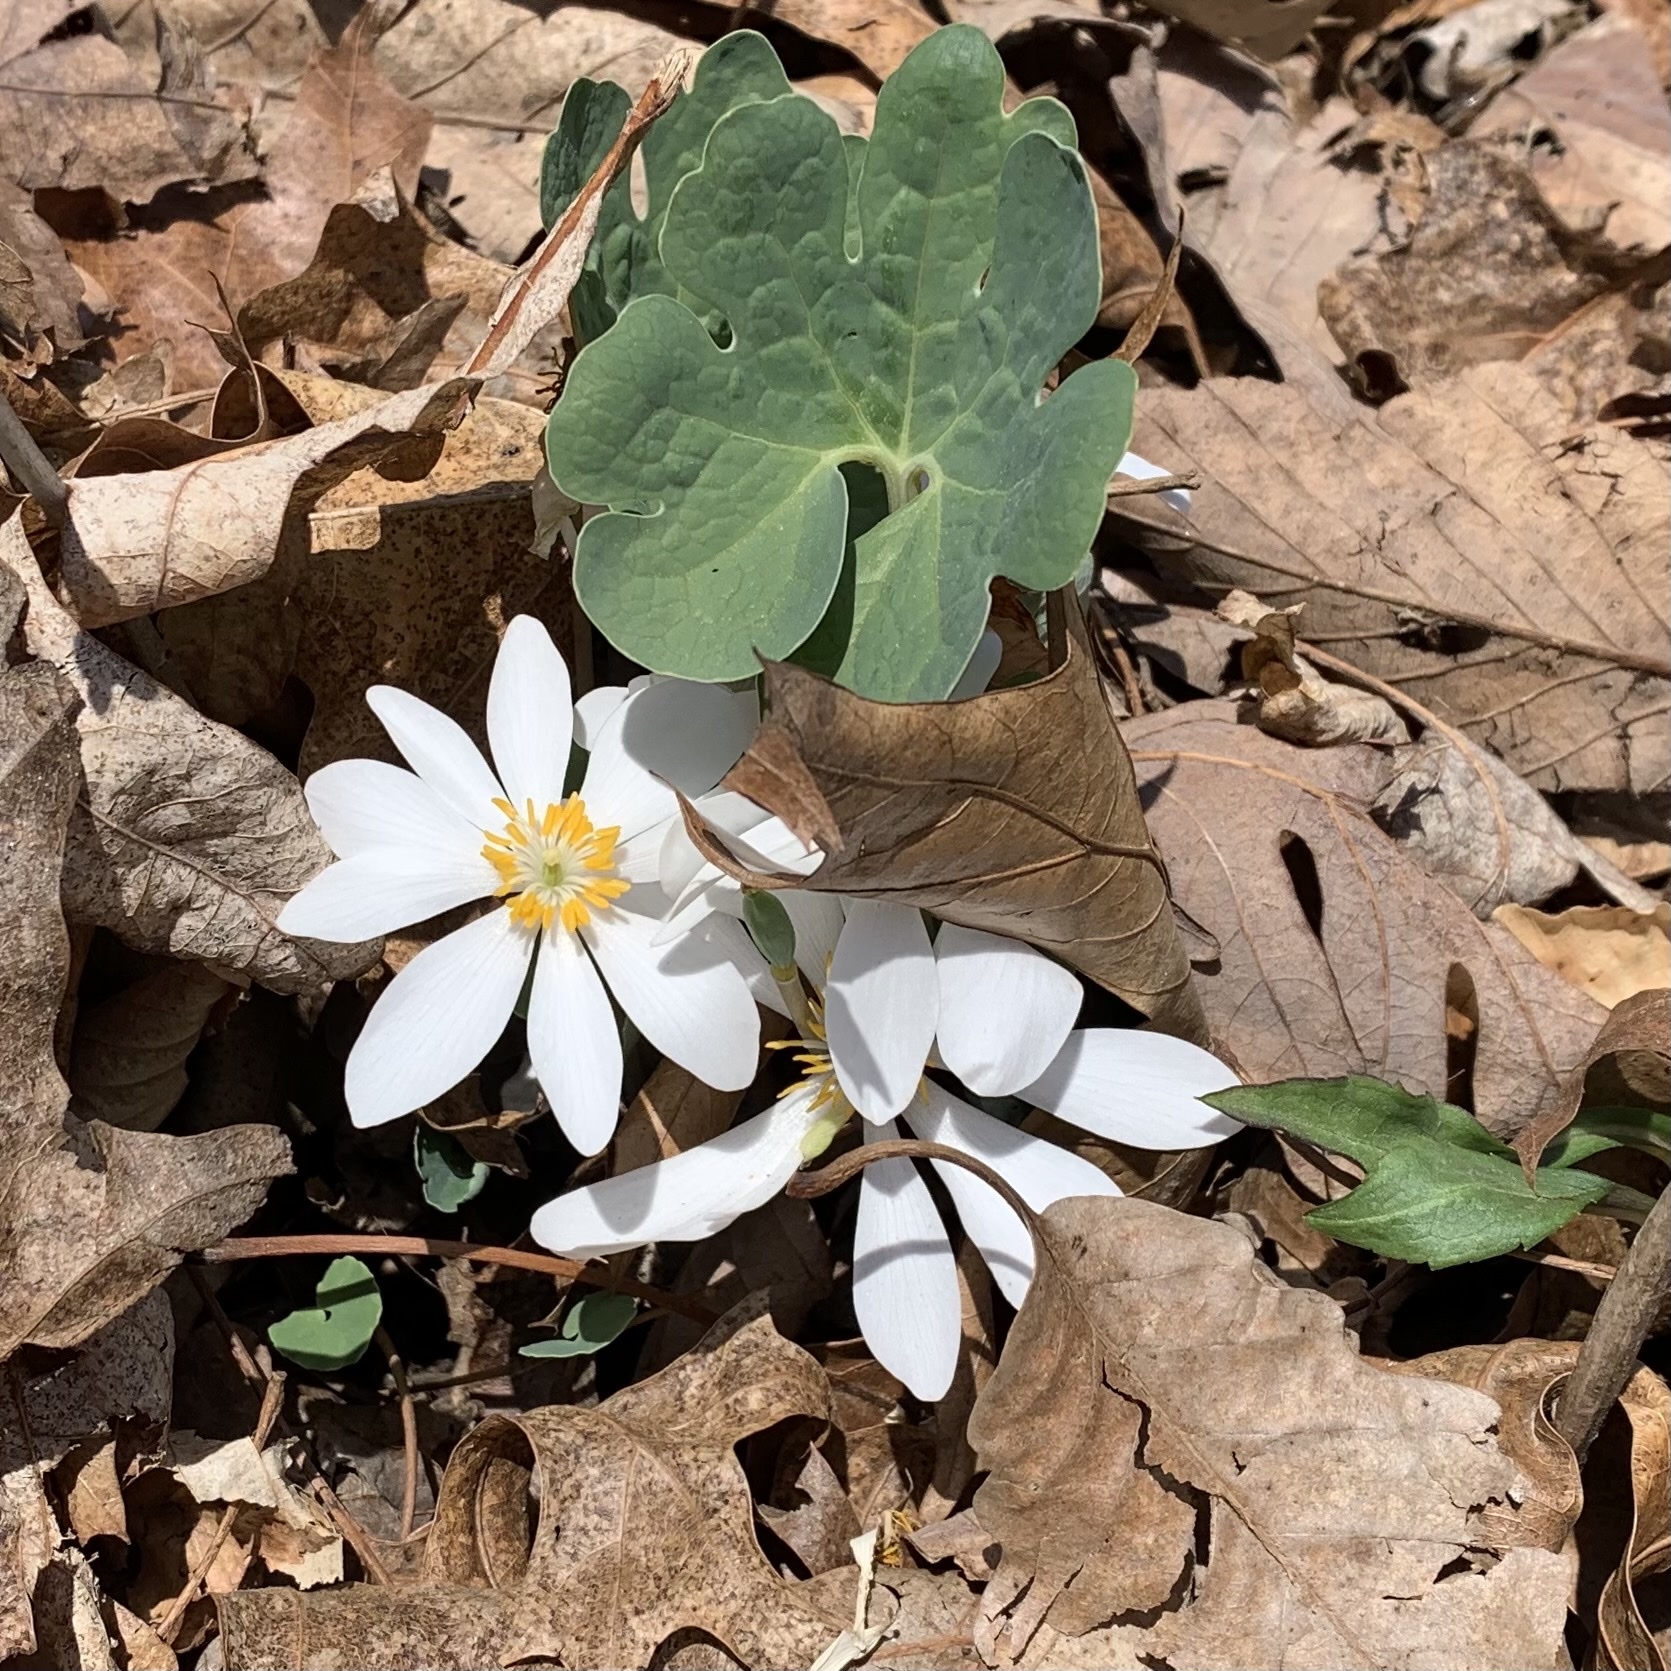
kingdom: Plantae
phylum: Tracheophyta
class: Magnoliopsida
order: Ranunculales
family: Papaveraceae
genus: Sanguinaria
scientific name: Sanguinaria canadensis
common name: Bloodroot
